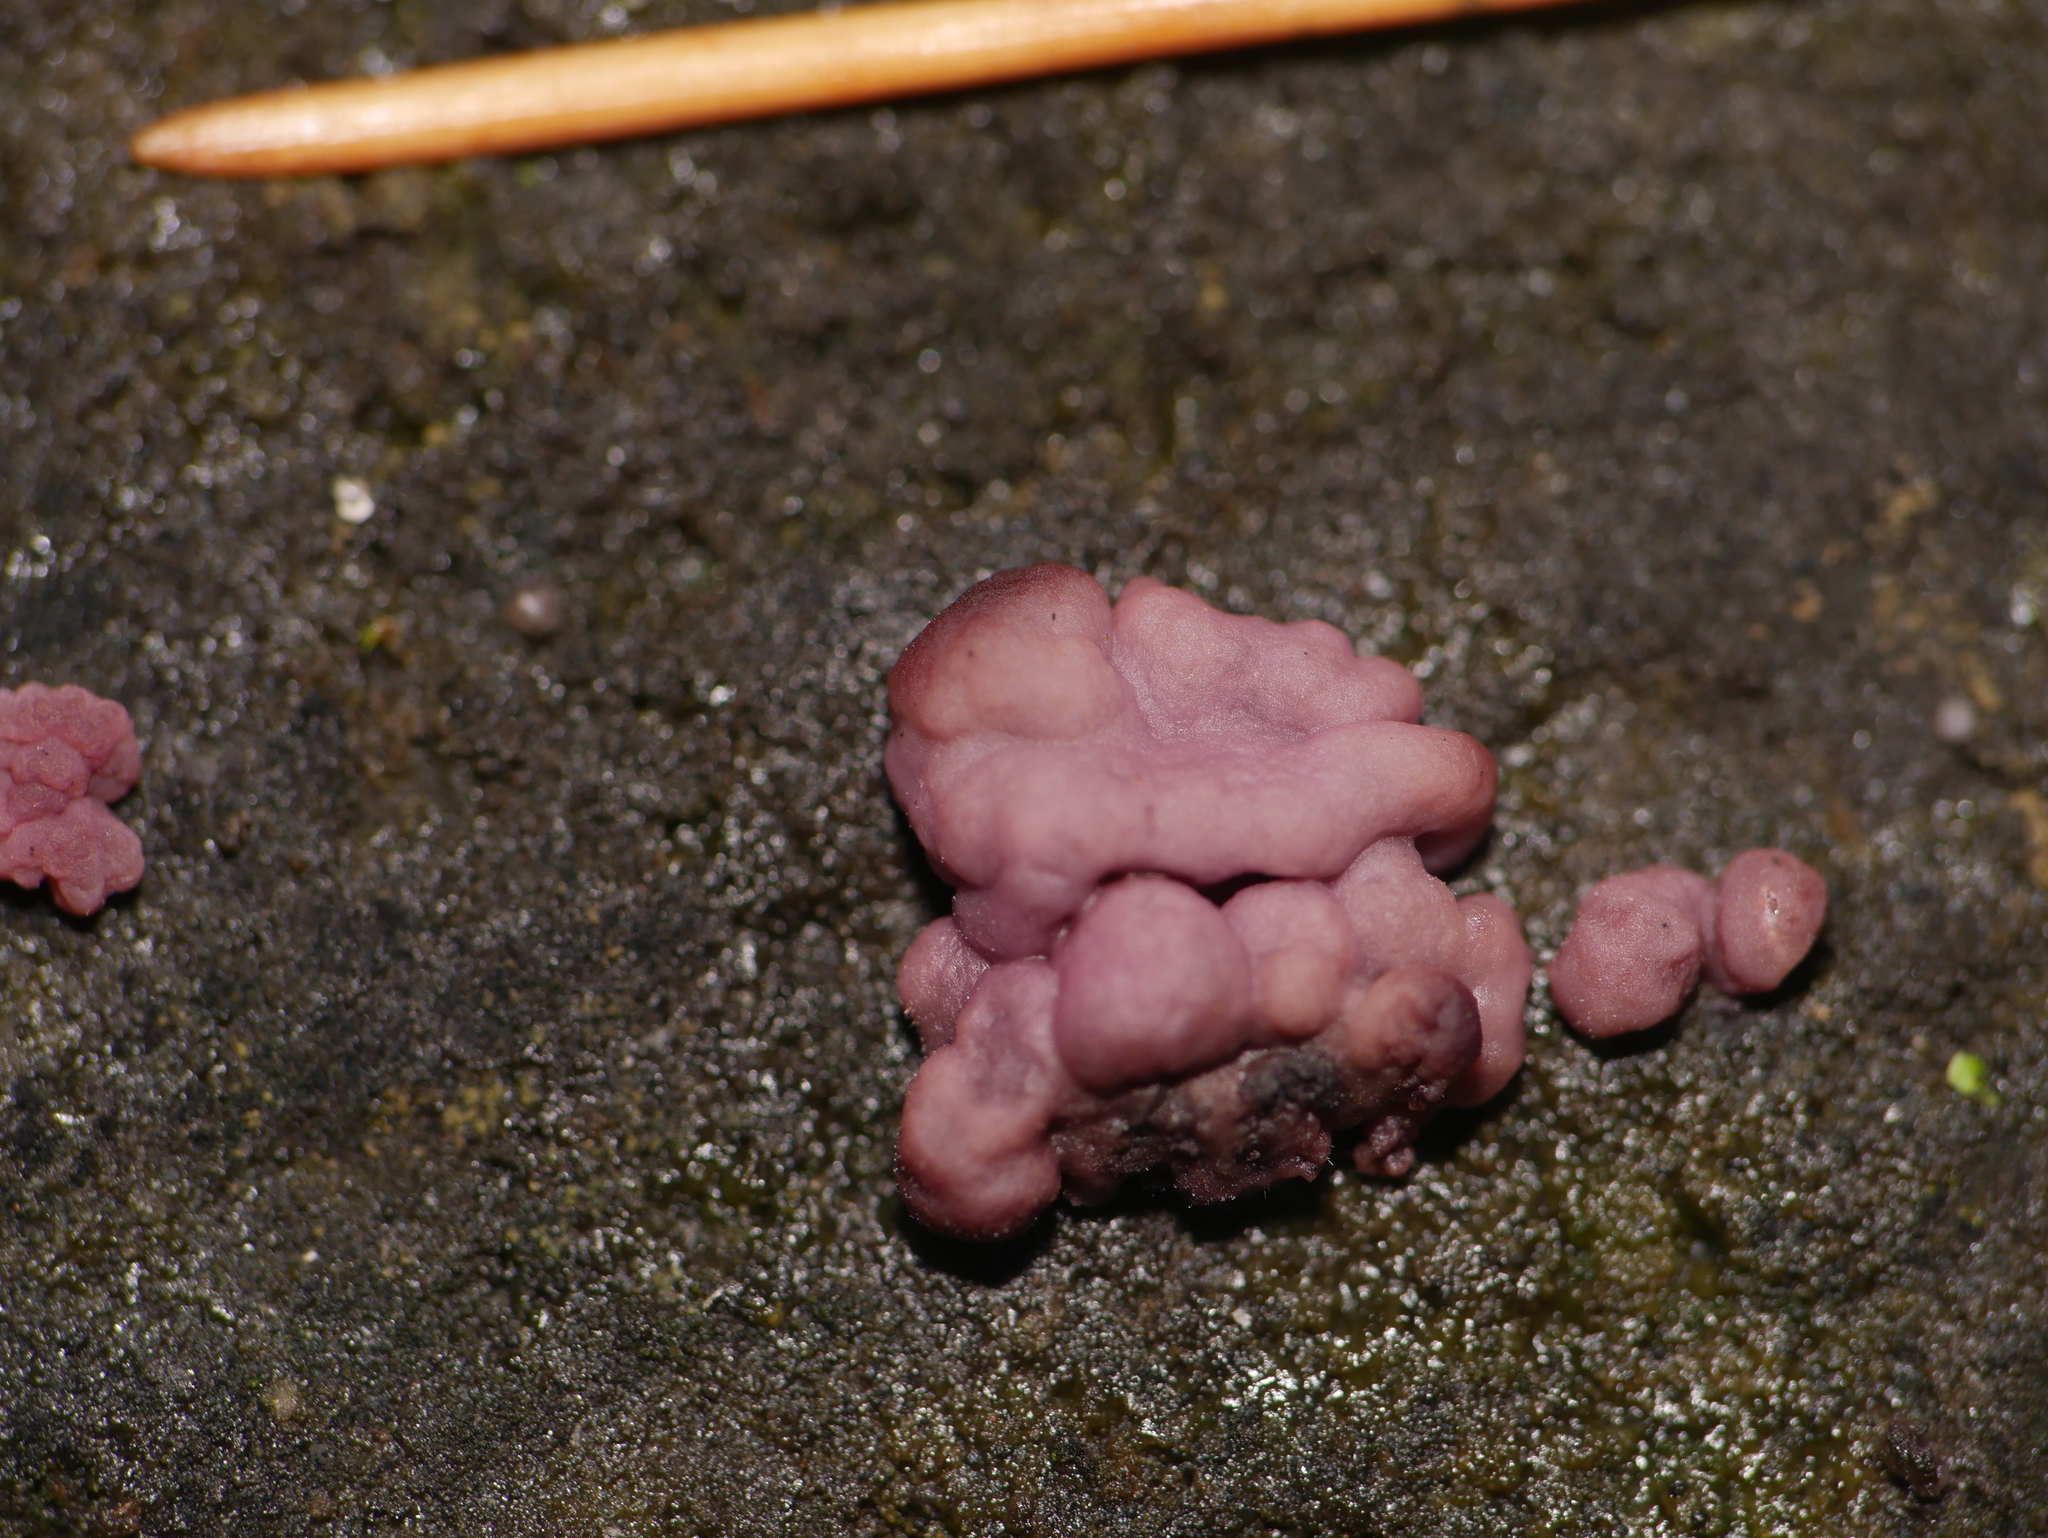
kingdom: Fungi
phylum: Ascomycota
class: Leotiomycetes
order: Helotiales
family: Gelatinodiscaceae
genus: Ascocoryne
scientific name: Ascocoryne sarcoides
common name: Purple jellydisc
